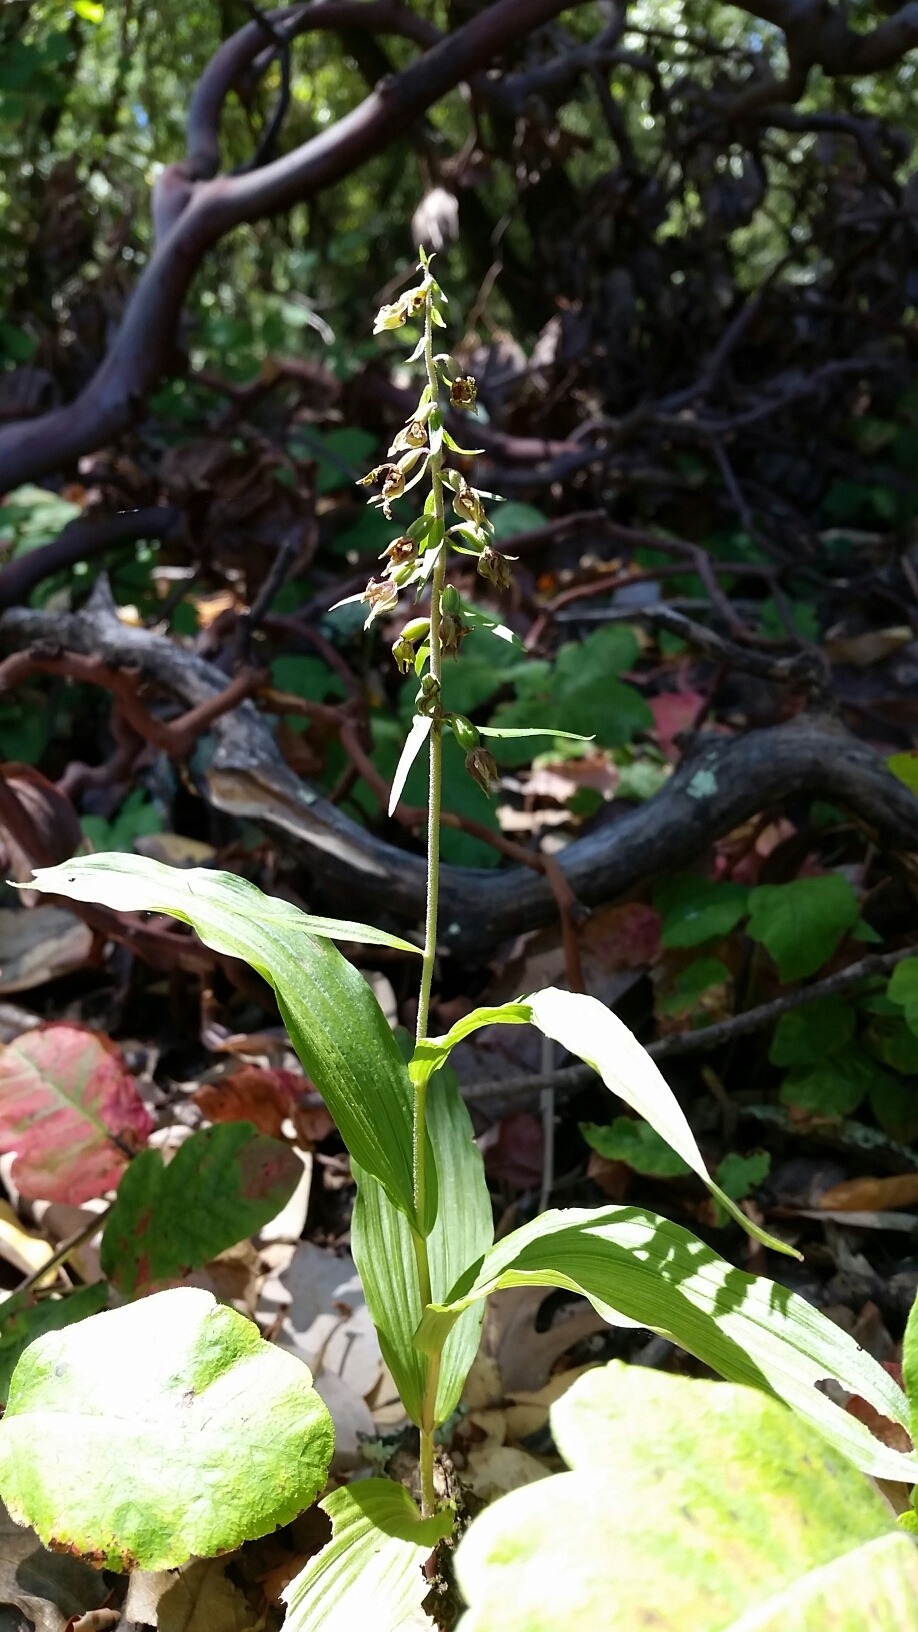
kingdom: Plantae
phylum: Tracheophyta
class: Liliopsida
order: Asparagales
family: Orchidaceae
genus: Epipactis
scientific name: Epipactis helleborine
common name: Broad-leaved helleborine
